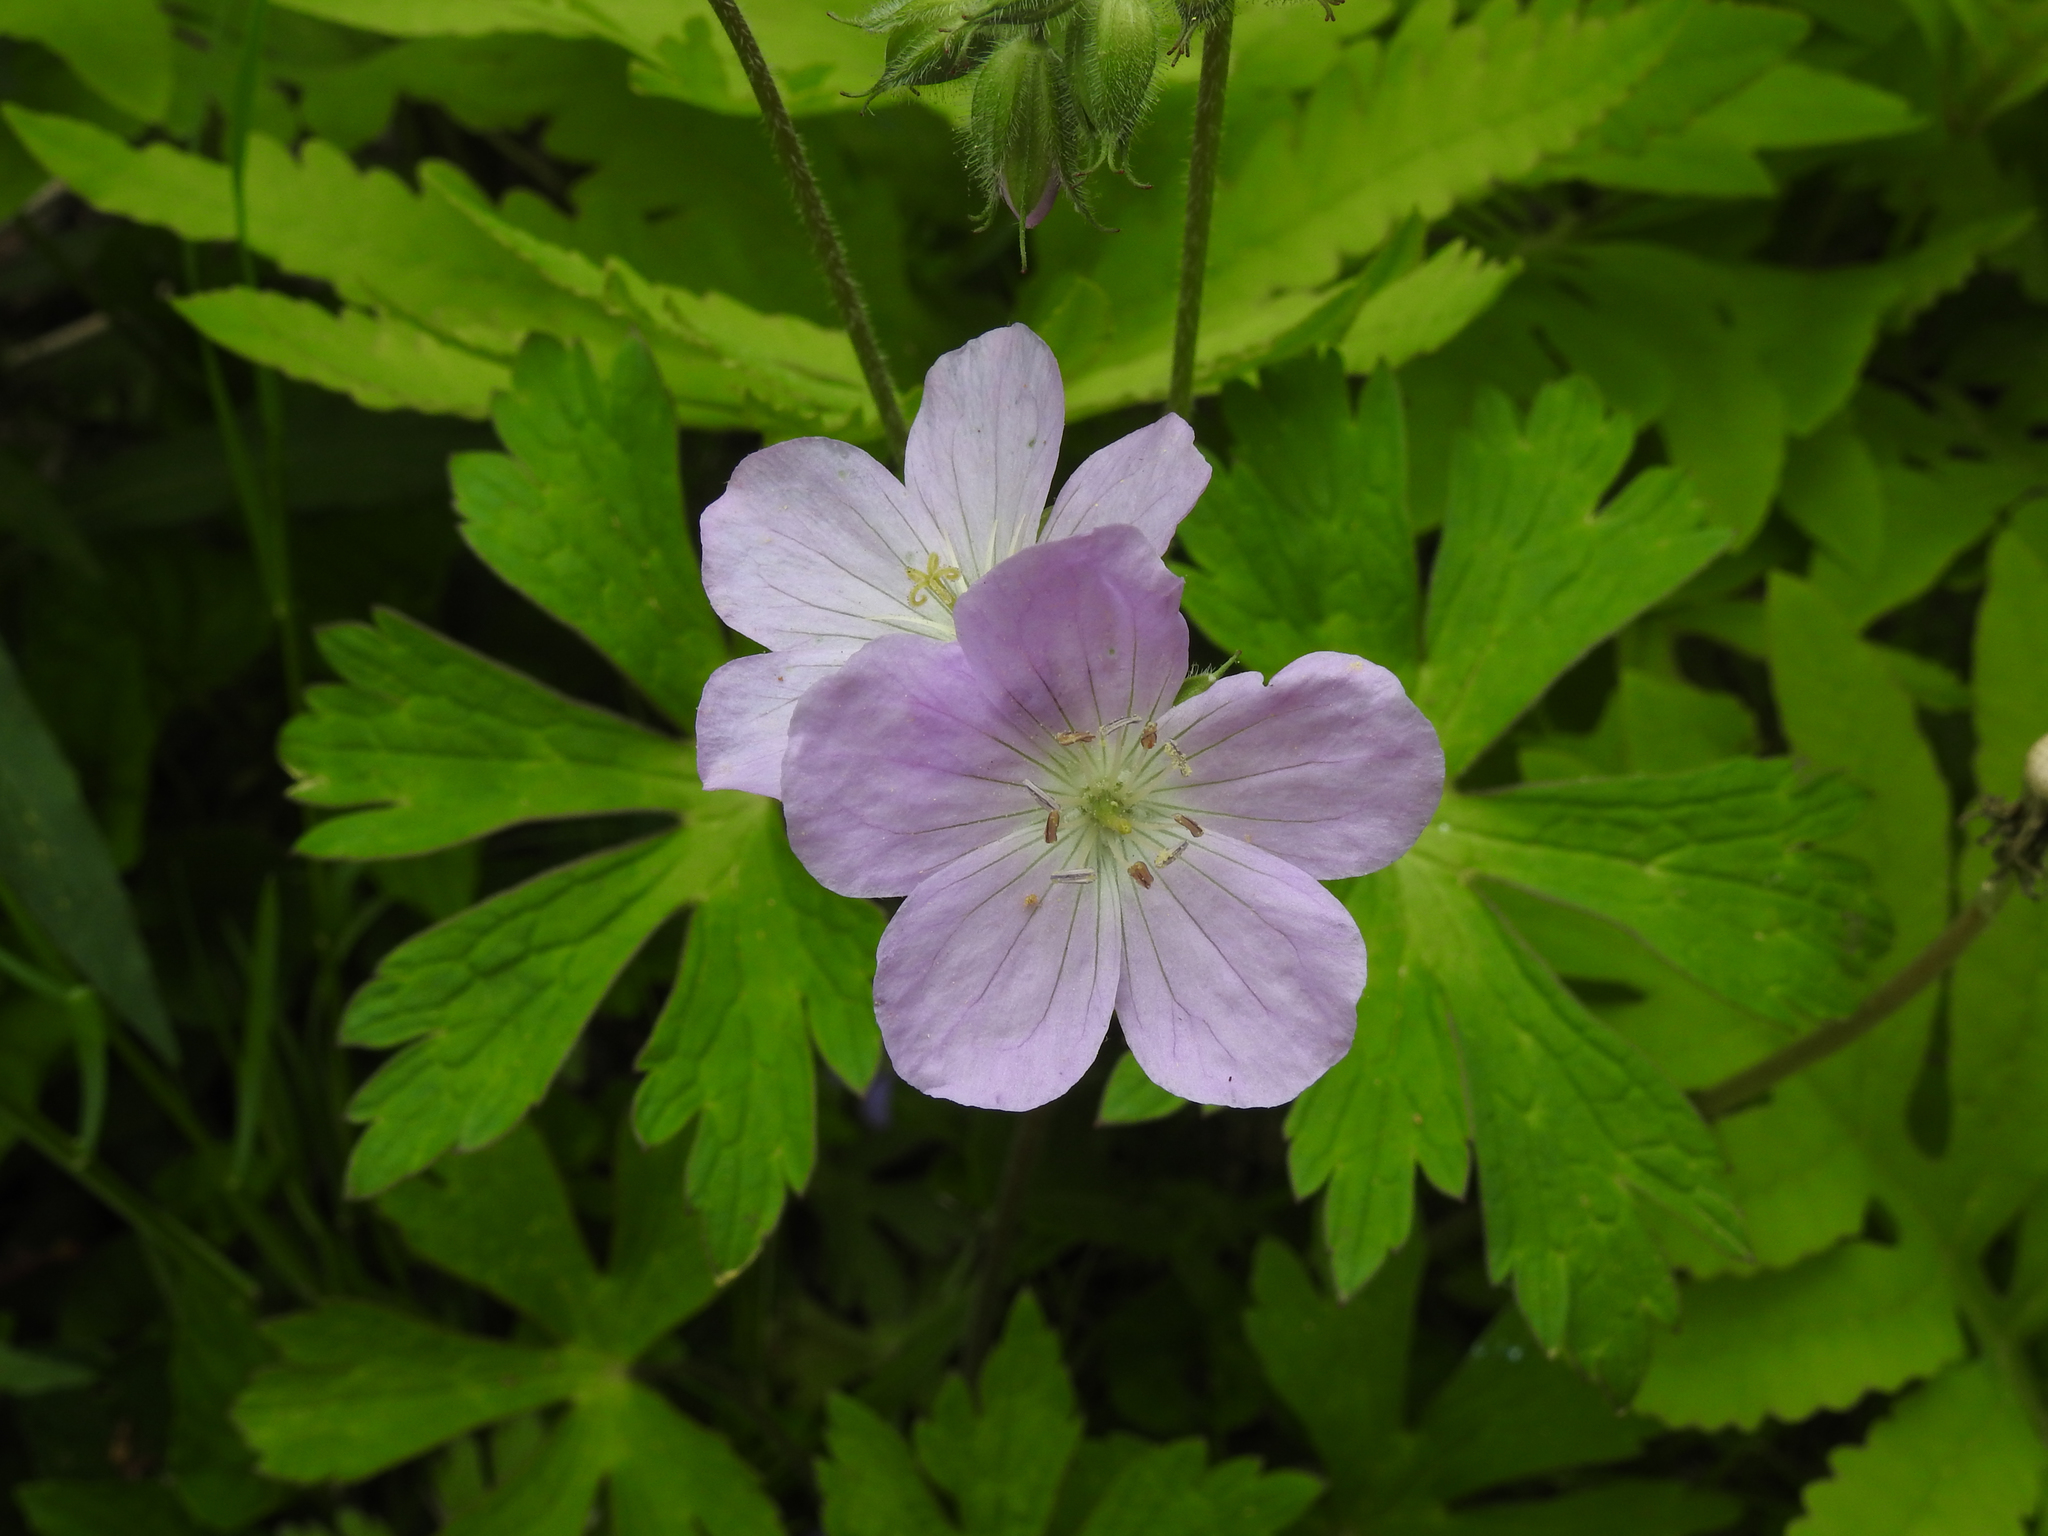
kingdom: Plantae
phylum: Tracheophyta
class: Magnoliopsida
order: Geraniales
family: Geraniaceae
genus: Geranium
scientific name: Geranium maculatum
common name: Spotted geranium
